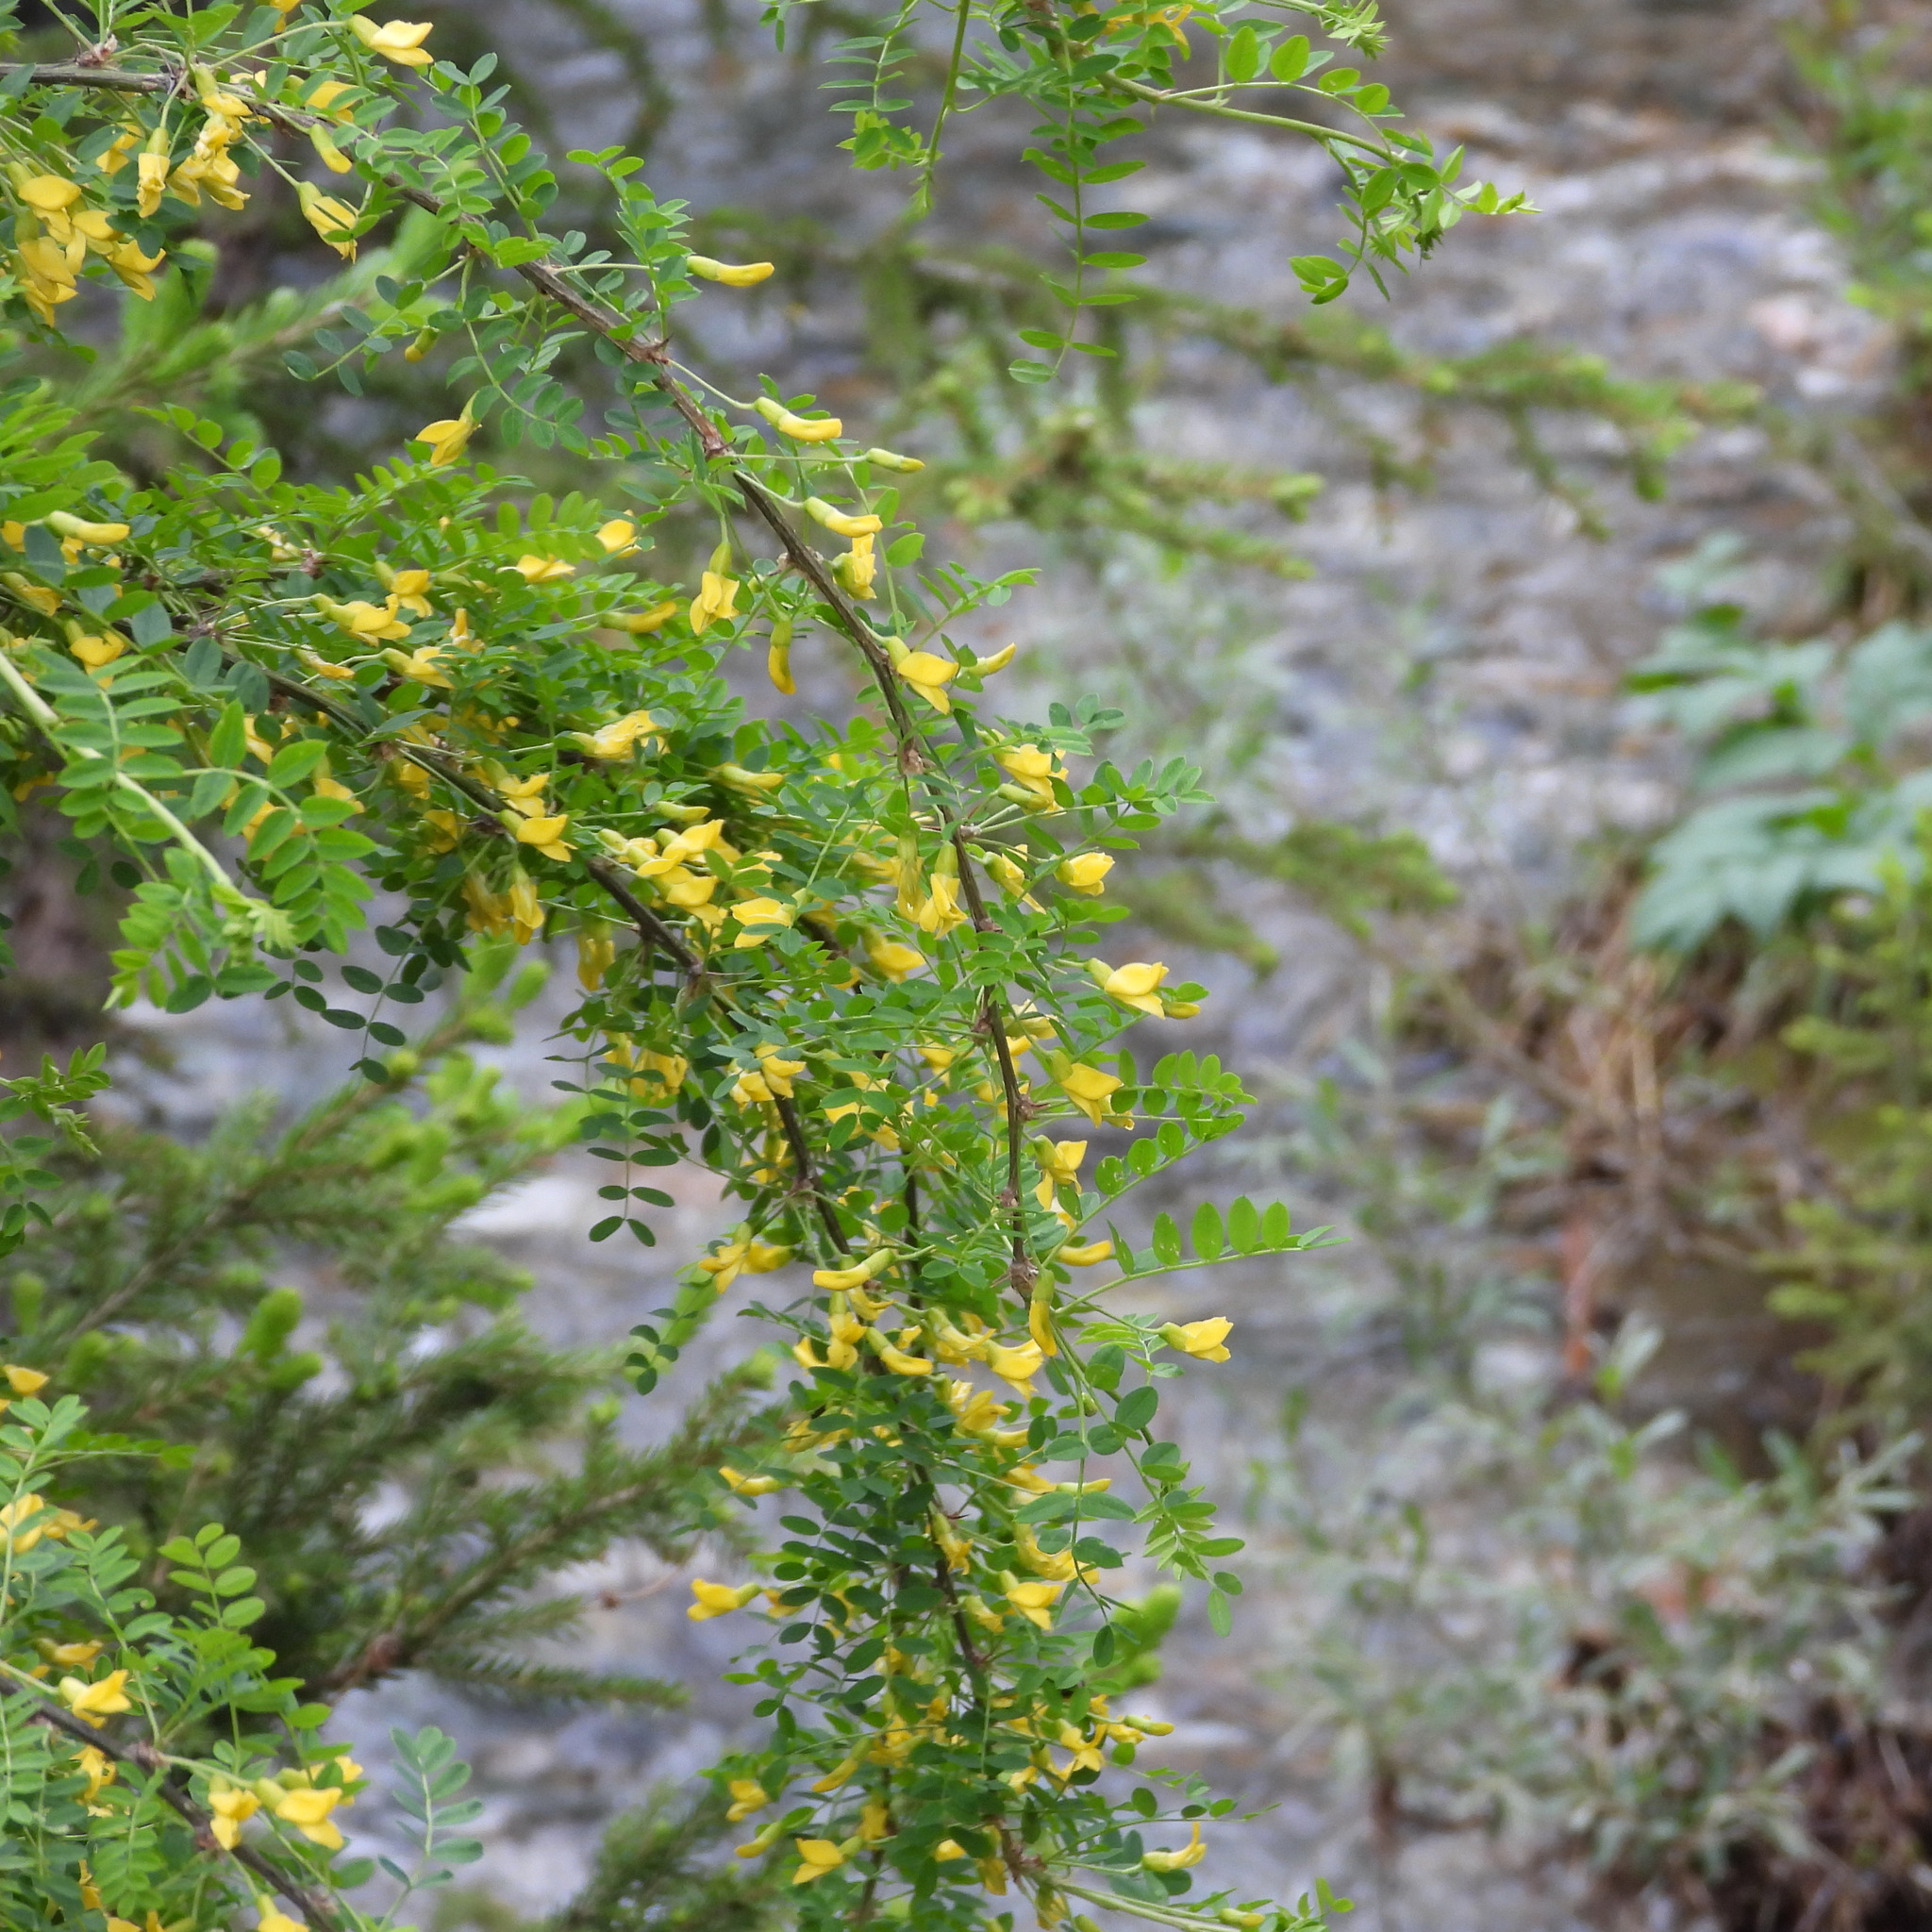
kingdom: Plantae
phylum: Tracheophyta
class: Magnoliopsida
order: Fabales
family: Fabaceae
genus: Caragana
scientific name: Caragana arborescens
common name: Siberian peashrub
